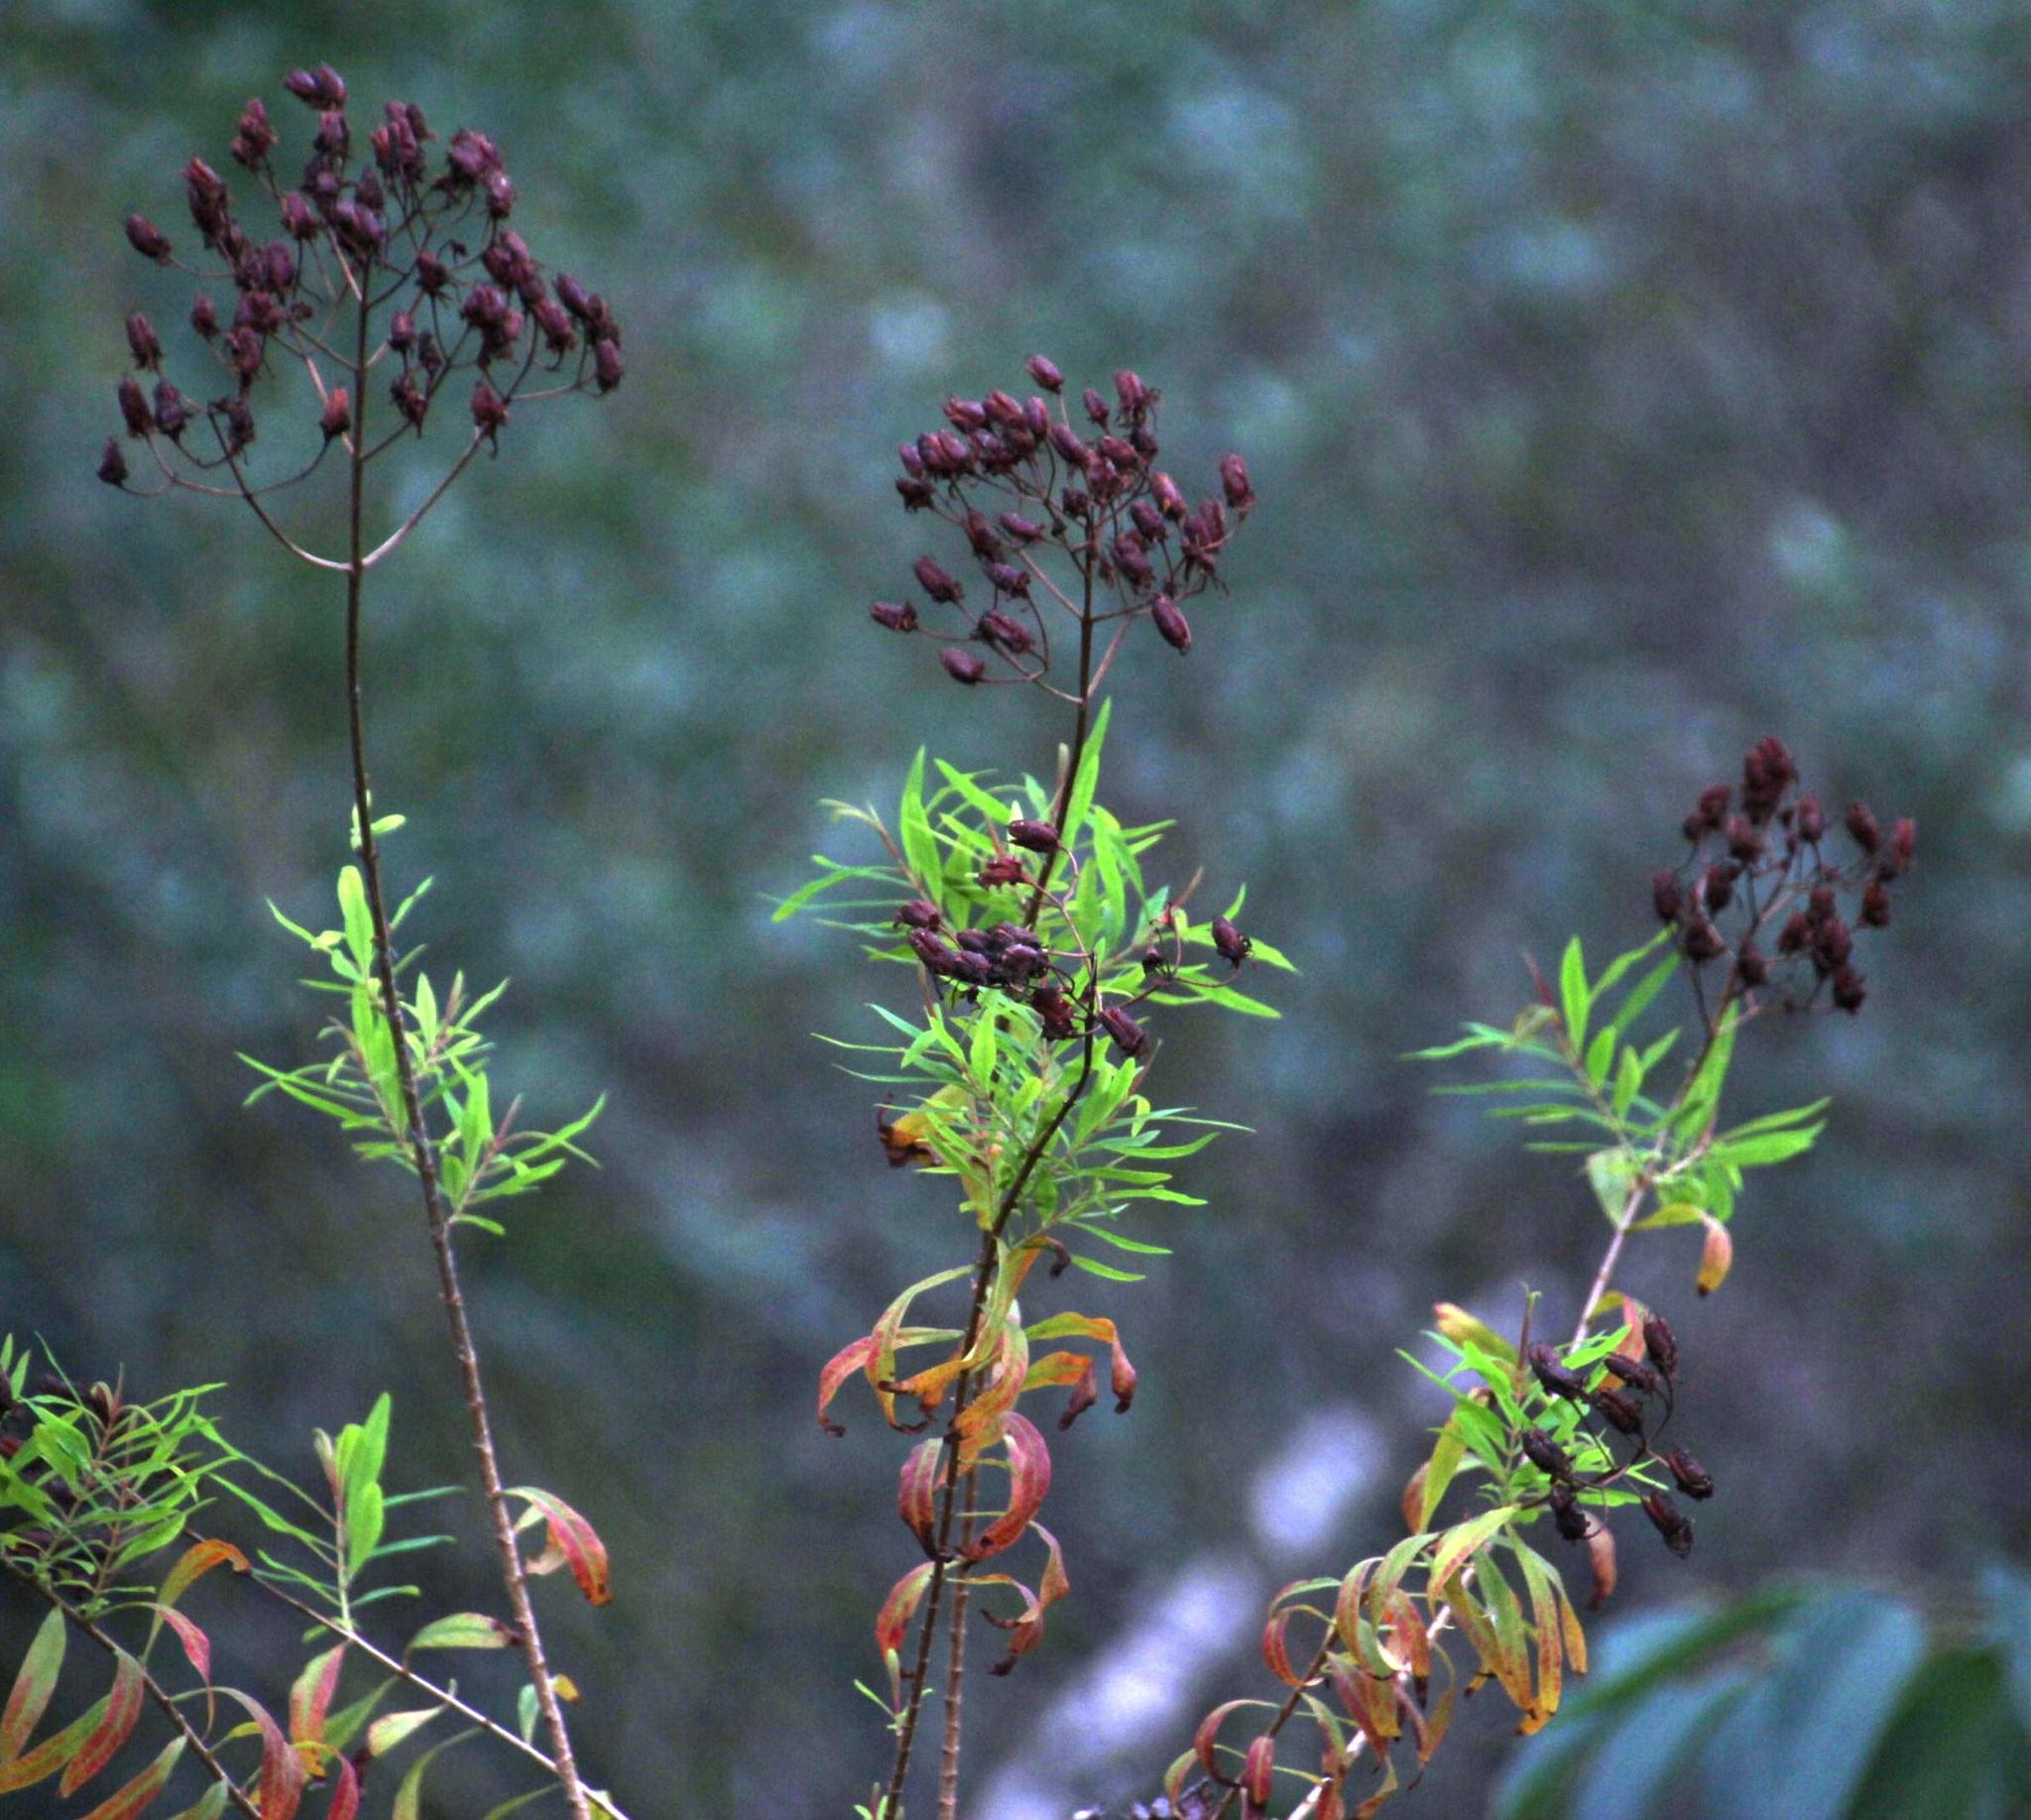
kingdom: Plantae
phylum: Tracheophyta
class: Magnoliopsida
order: Malpighiales
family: Hypericaceae
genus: Hypericum
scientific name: Hypericum canariense
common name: Canary island st. johnswort
